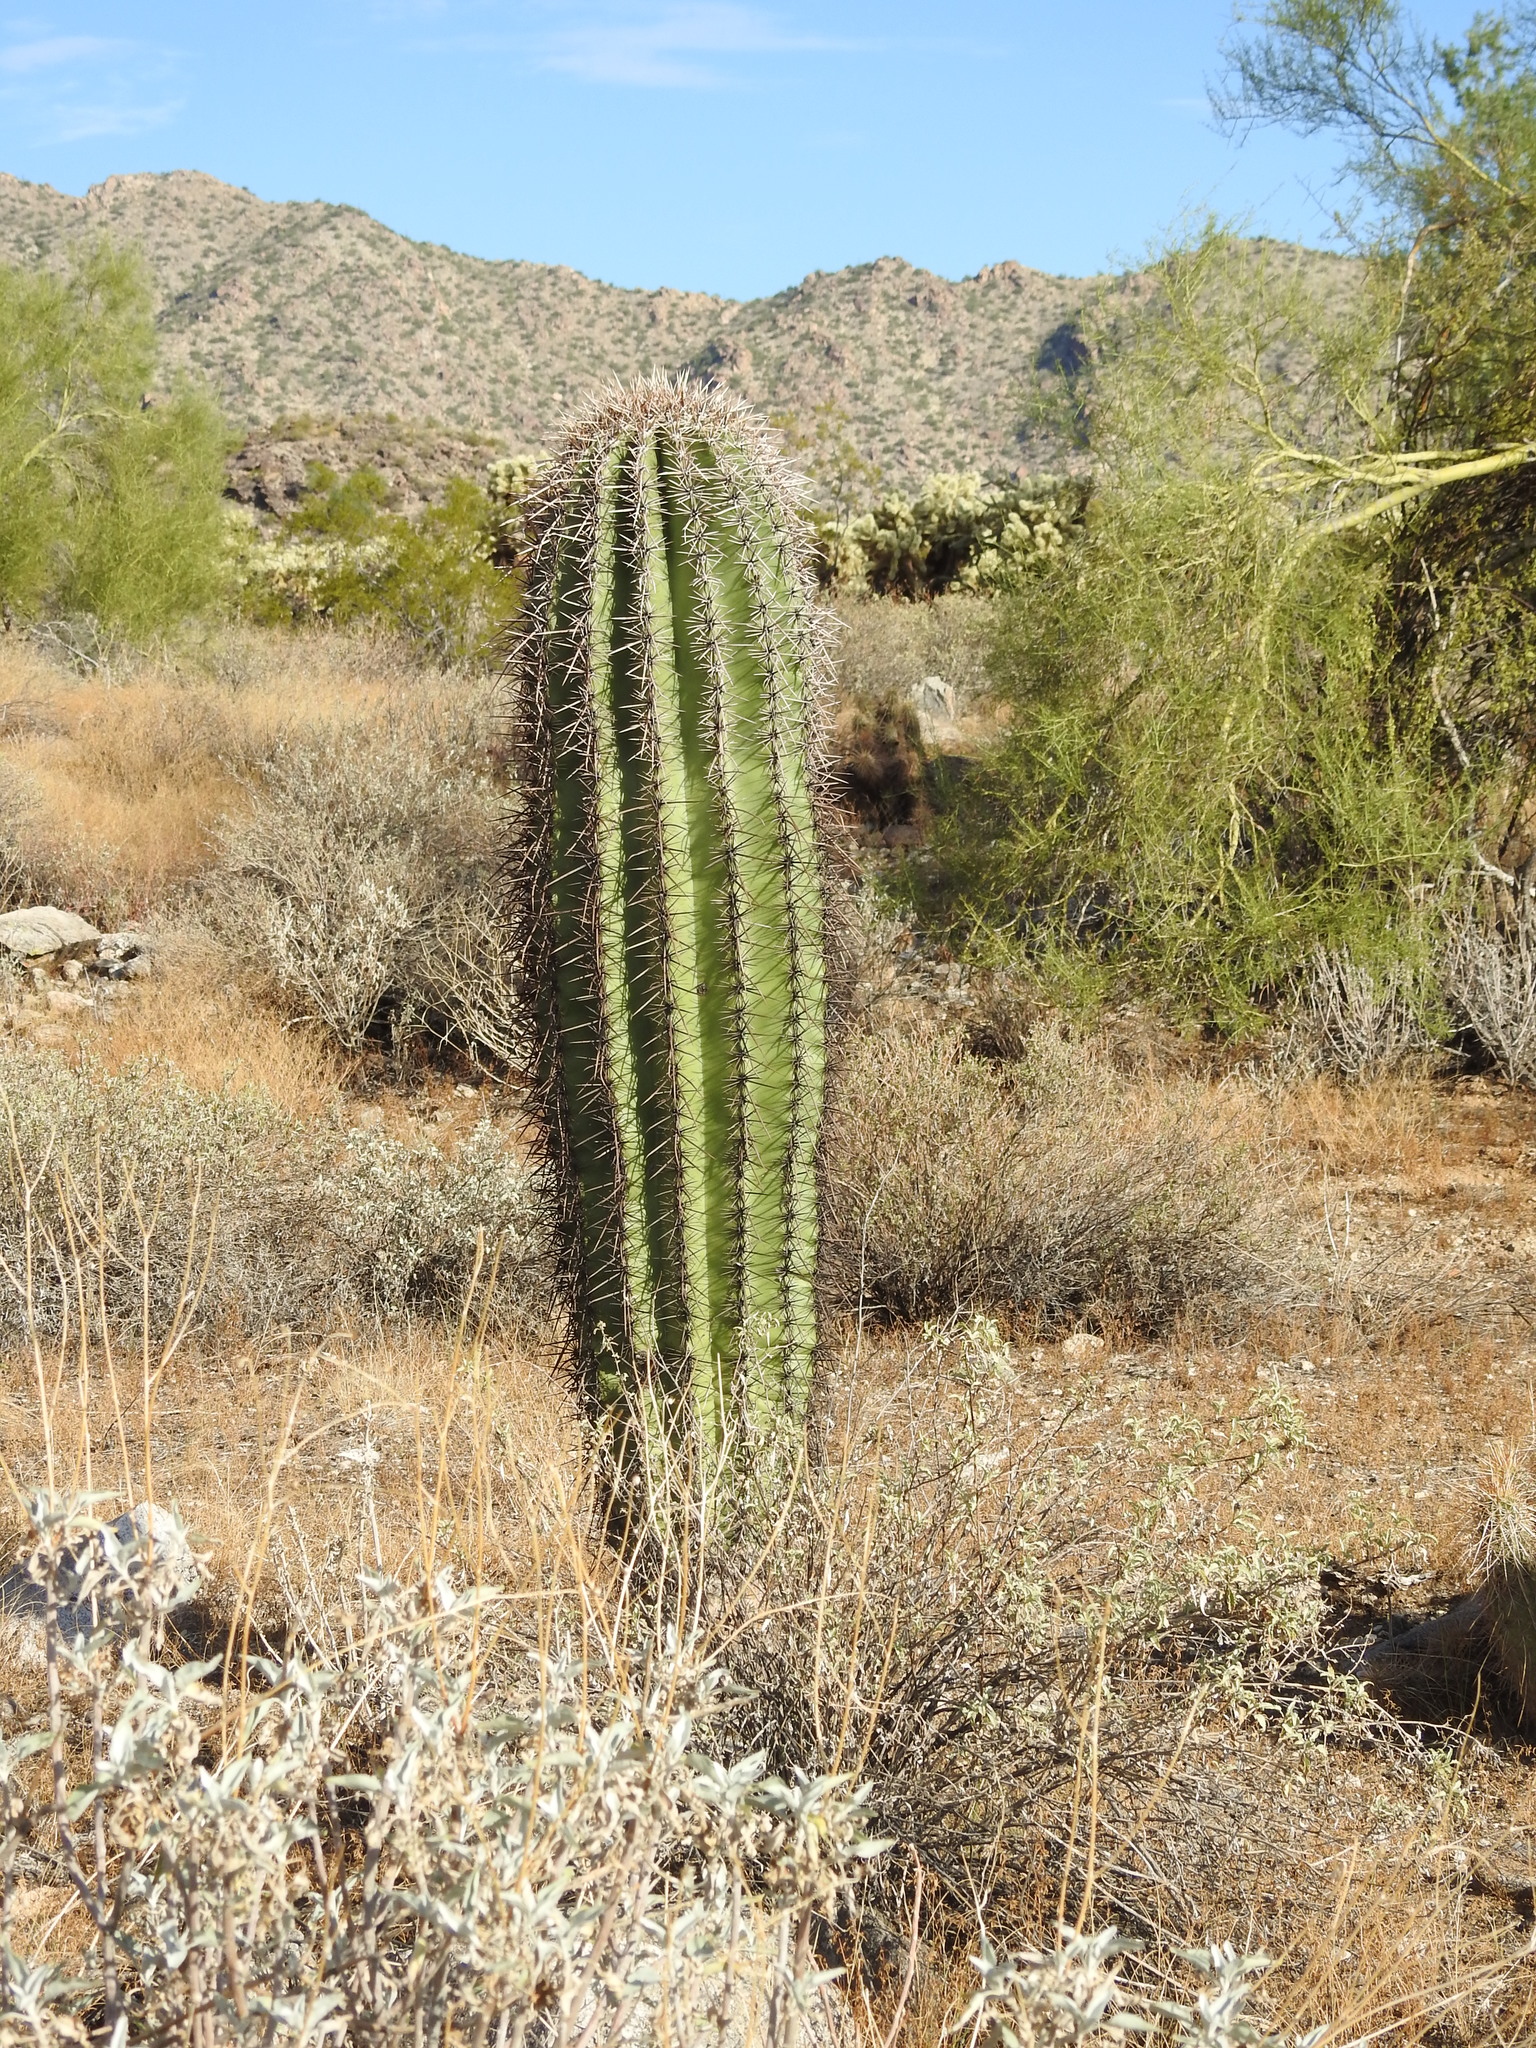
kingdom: Plantae
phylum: Tracheophyta
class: Magnoliopsida
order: Caryophyllales
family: Cactaceae
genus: Carnegiea
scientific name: Carnegiea gigantea
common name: Saguaro
